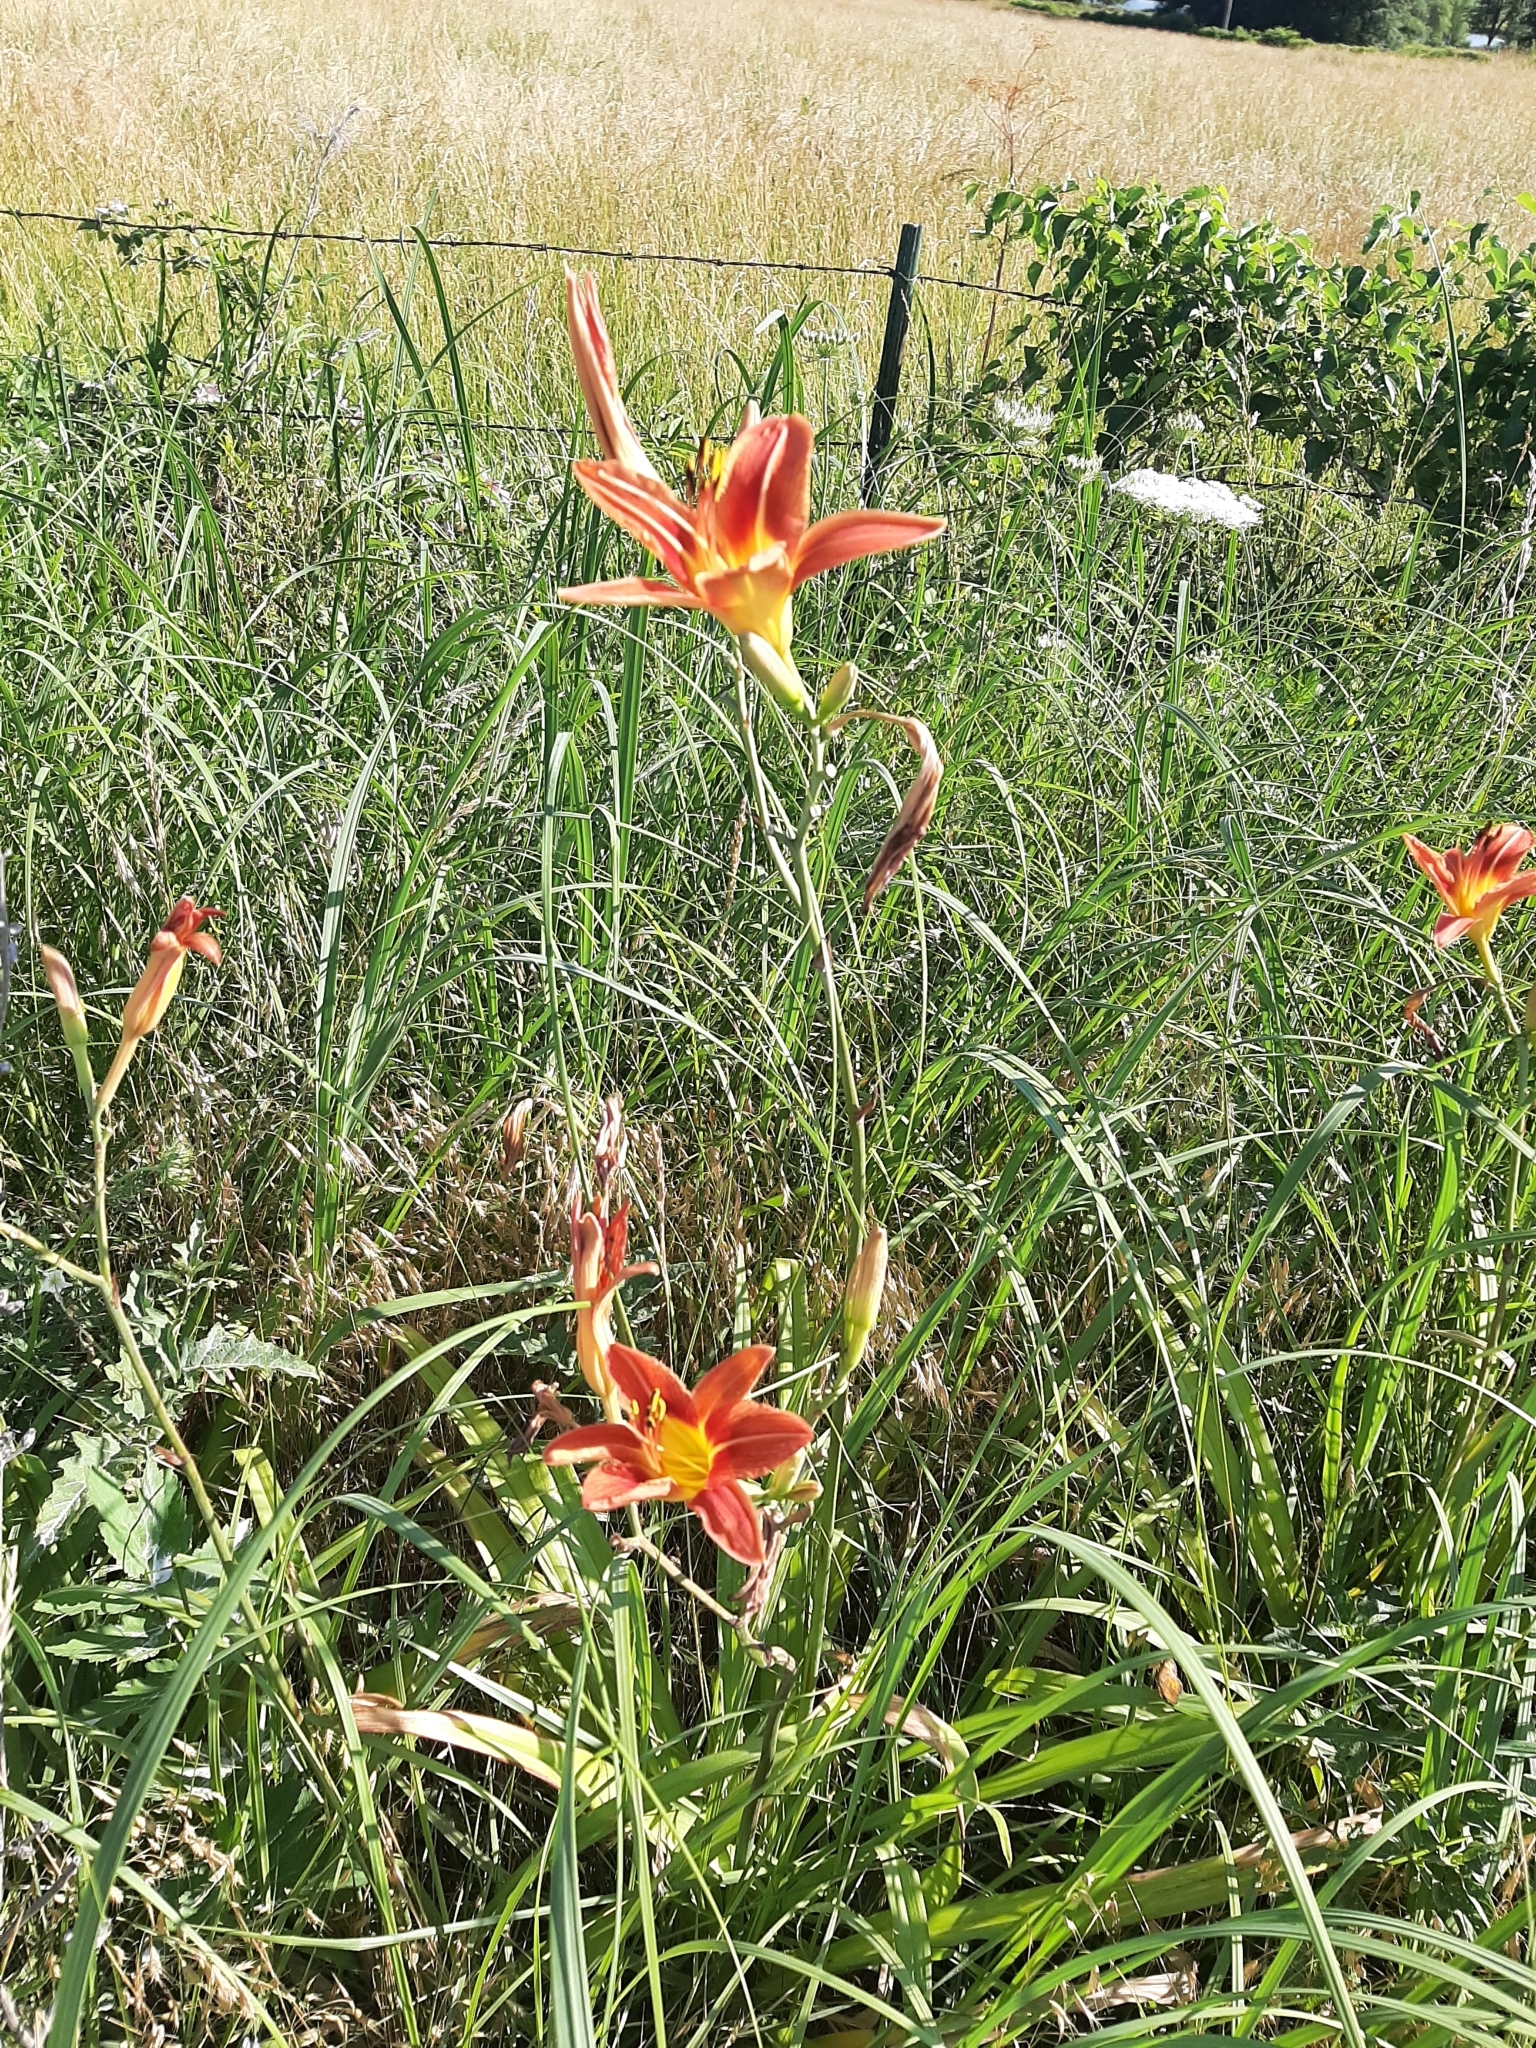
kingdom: Plantae
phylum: Tracheophyta
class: Liliopsida
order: Asparagales
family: Asphodelaceae
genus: Hemerocallis
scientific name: Hemerocallis fulva
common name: Orange day-lily
